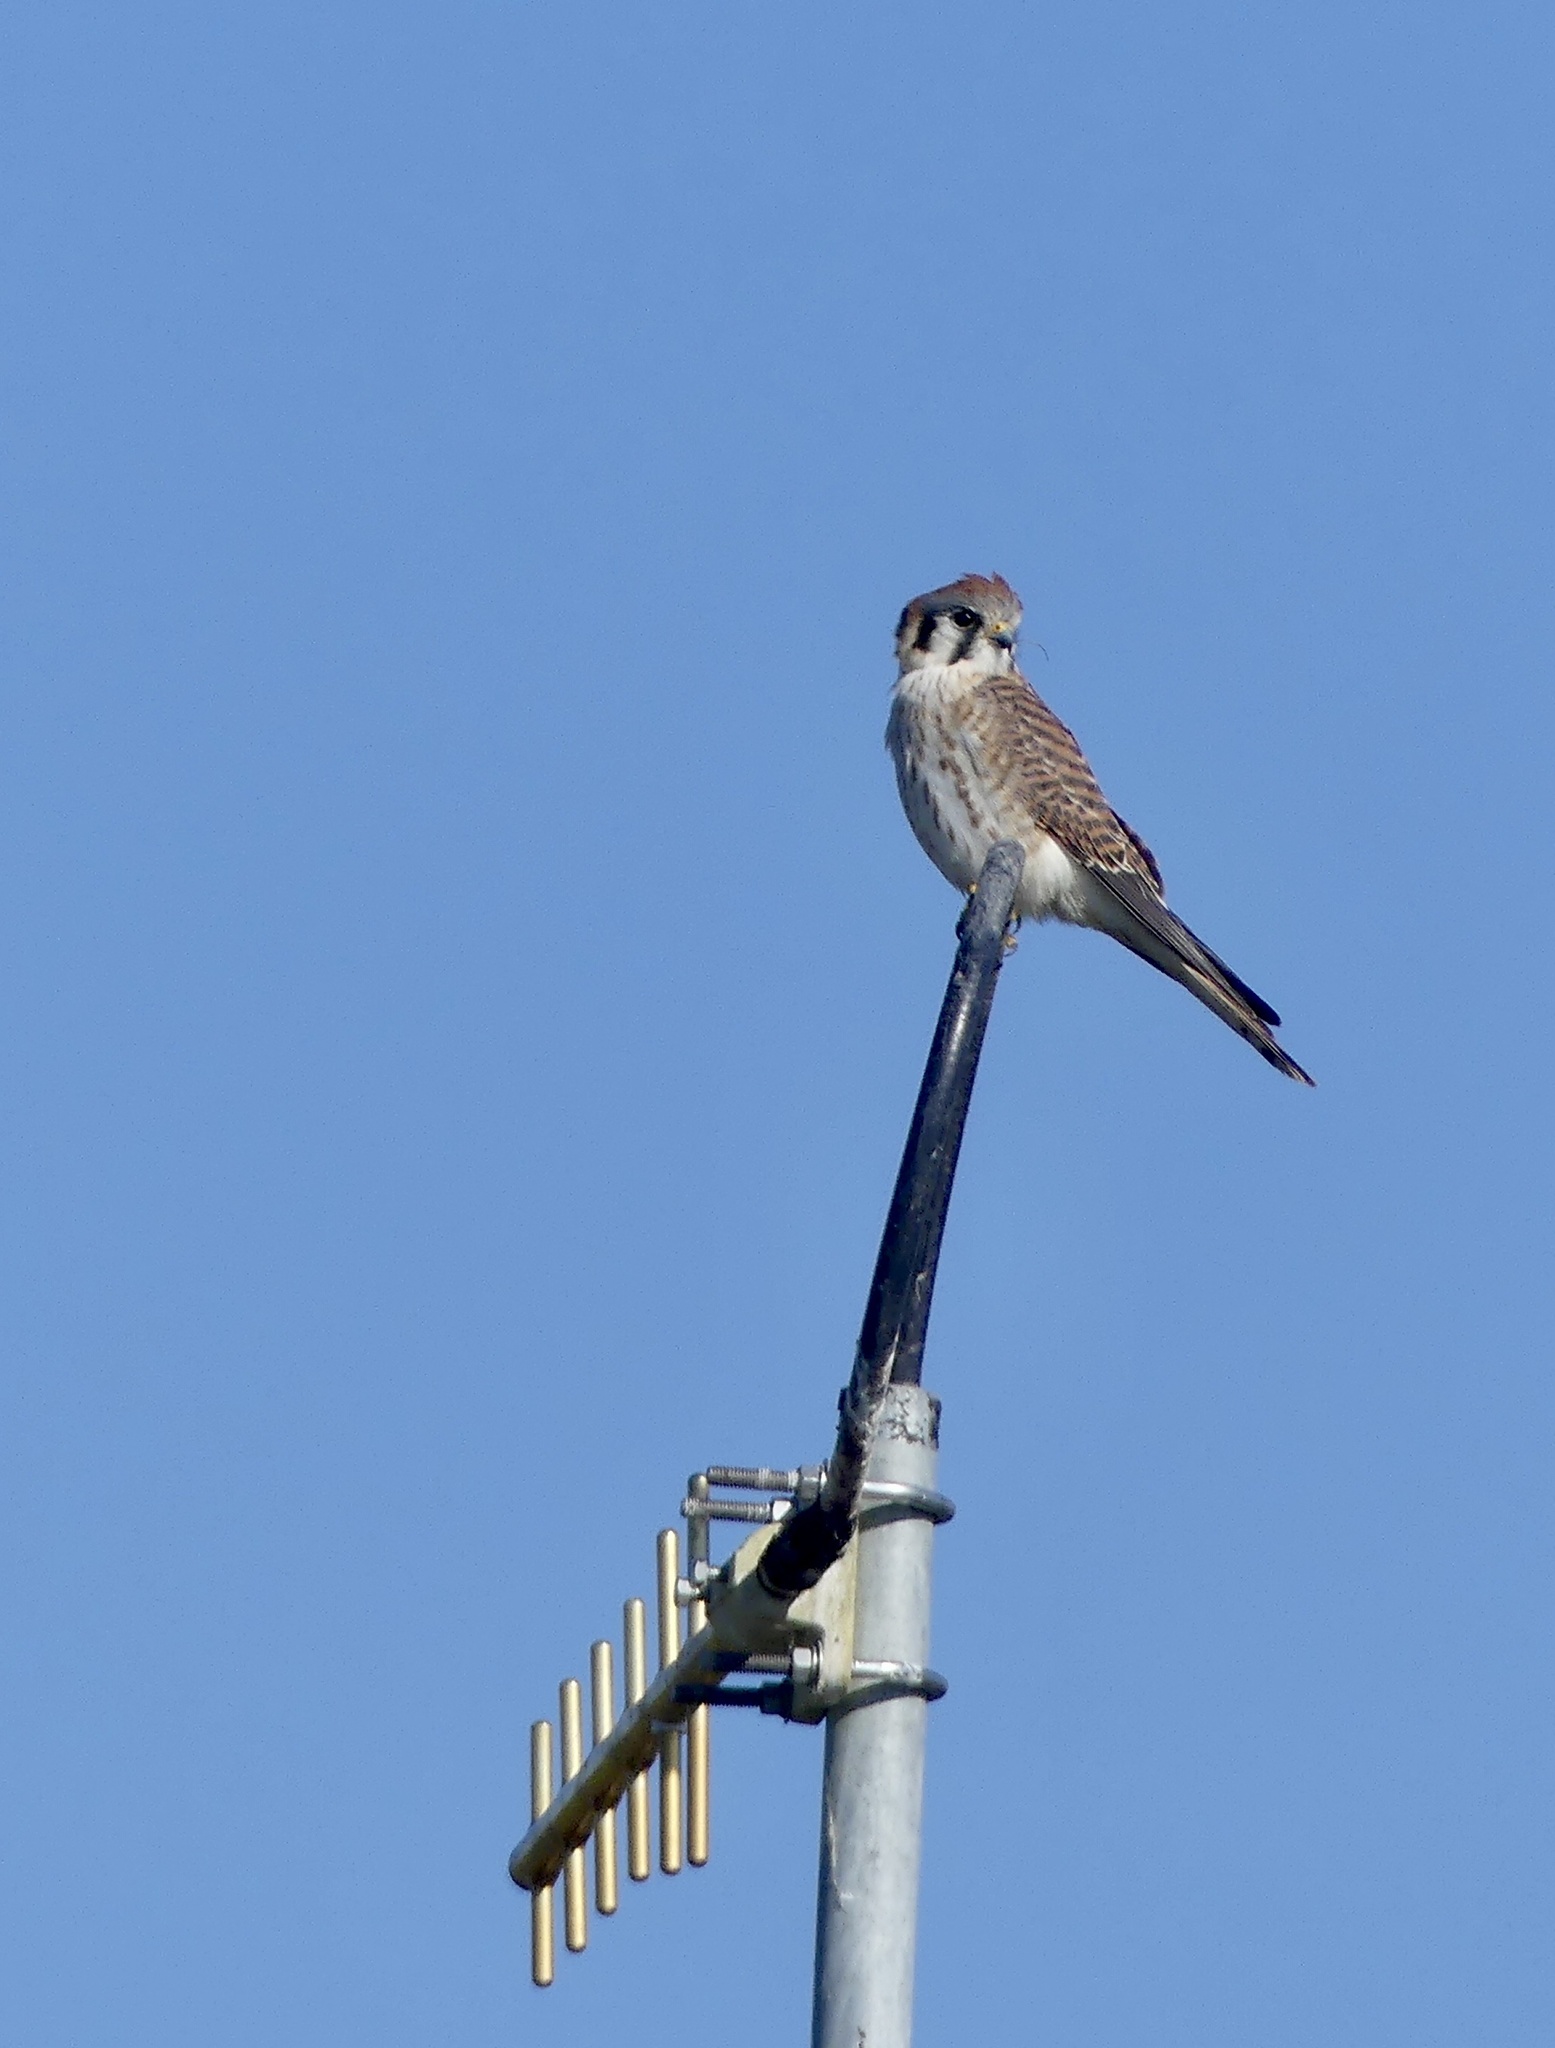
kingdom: Animalia
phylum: Chordata
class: Aves
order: Falconiformes
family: Falconidae
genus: Falco
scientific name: Falco sparverius
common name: American kestrel
